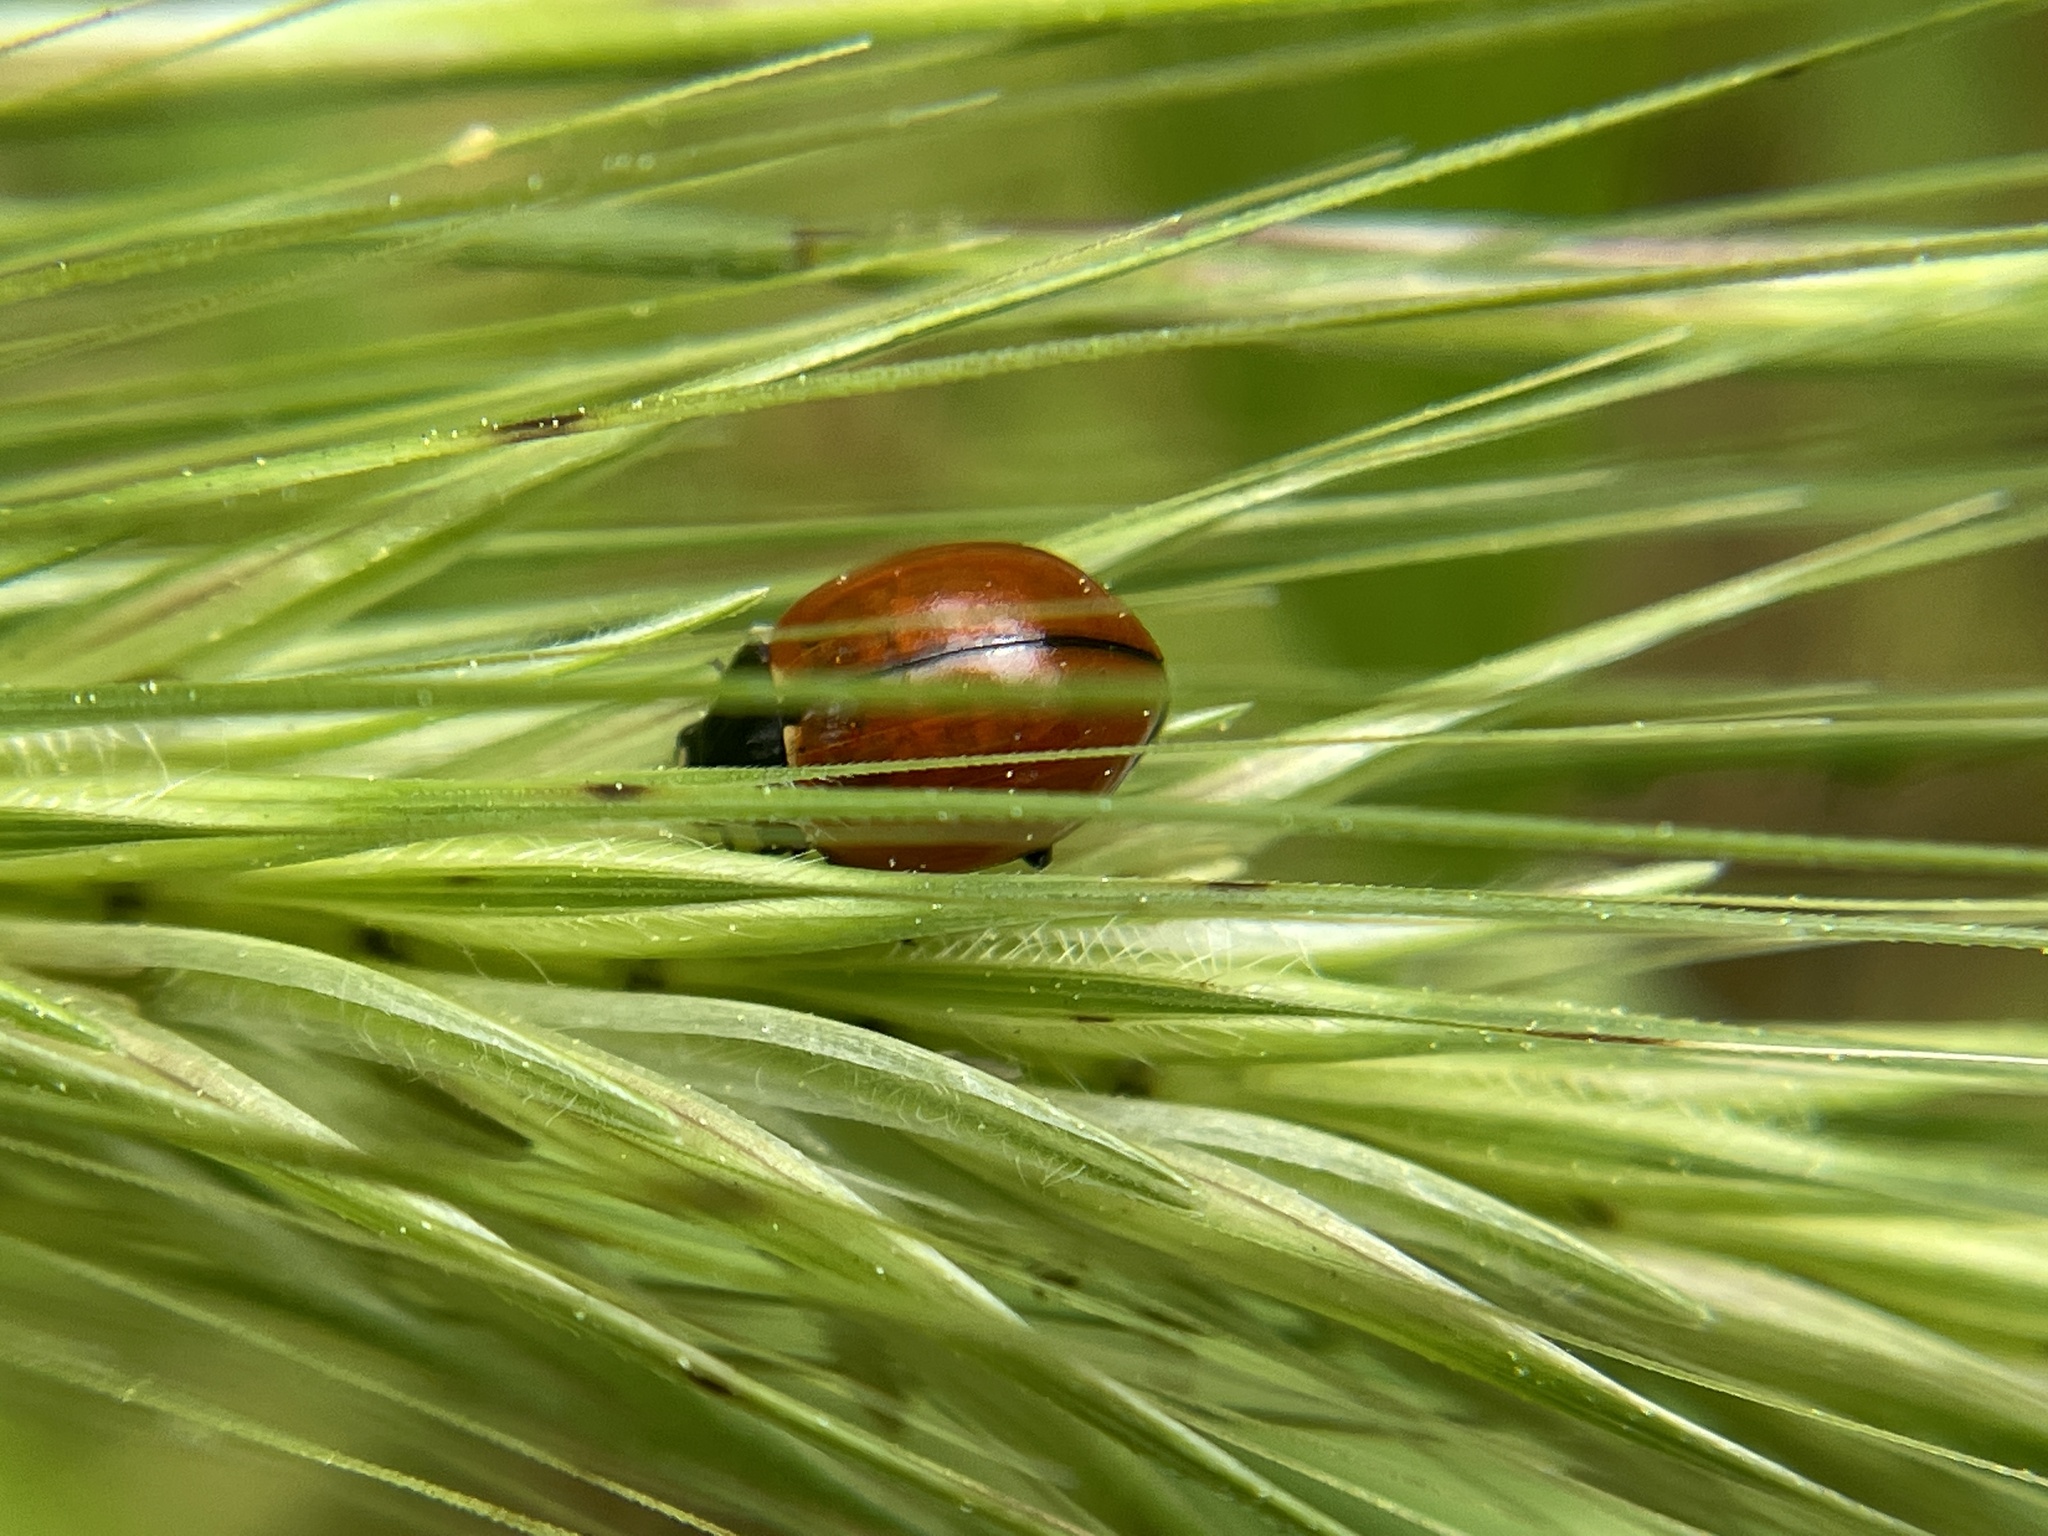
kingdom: Animalia
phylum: Arthropoda
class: Insecta
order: Coleoptera
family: Coccinellidae
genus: Coccinella
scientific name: Coccinella californica
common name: Lady beetle
